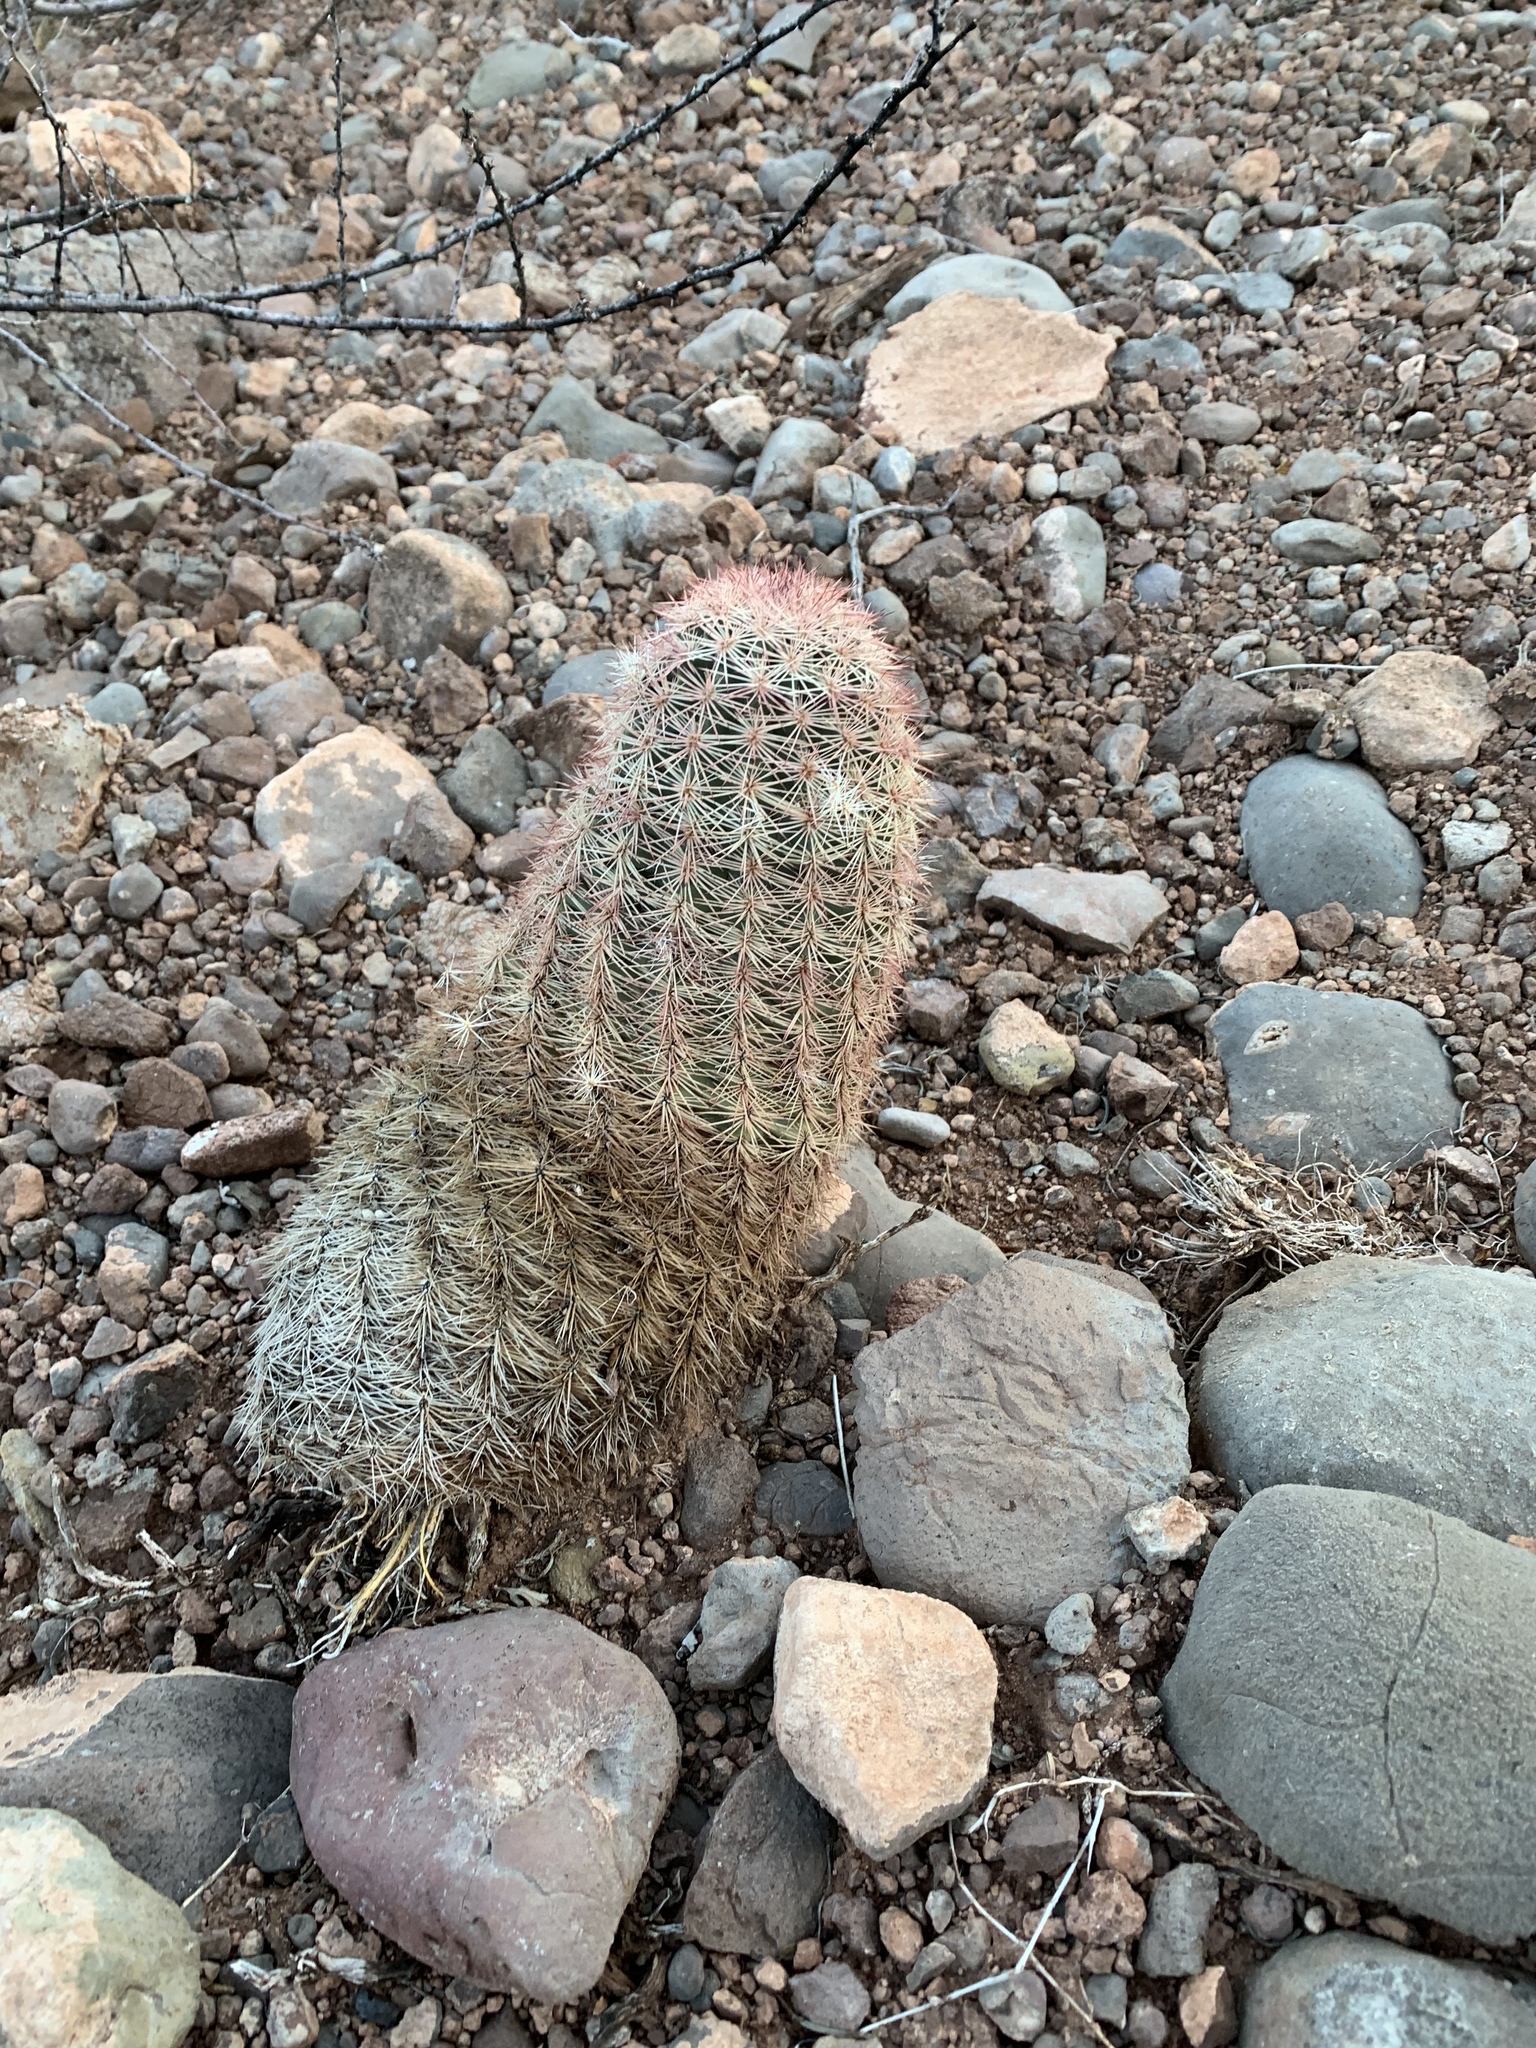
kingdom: Plantae
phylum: Tracheophyta
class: Magnoliopsida
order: Caryophyllales
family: Cactaceae
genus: Echinocereus
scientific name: Echinocereus dasyacanthus
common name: Spiny hedgehog cactus
